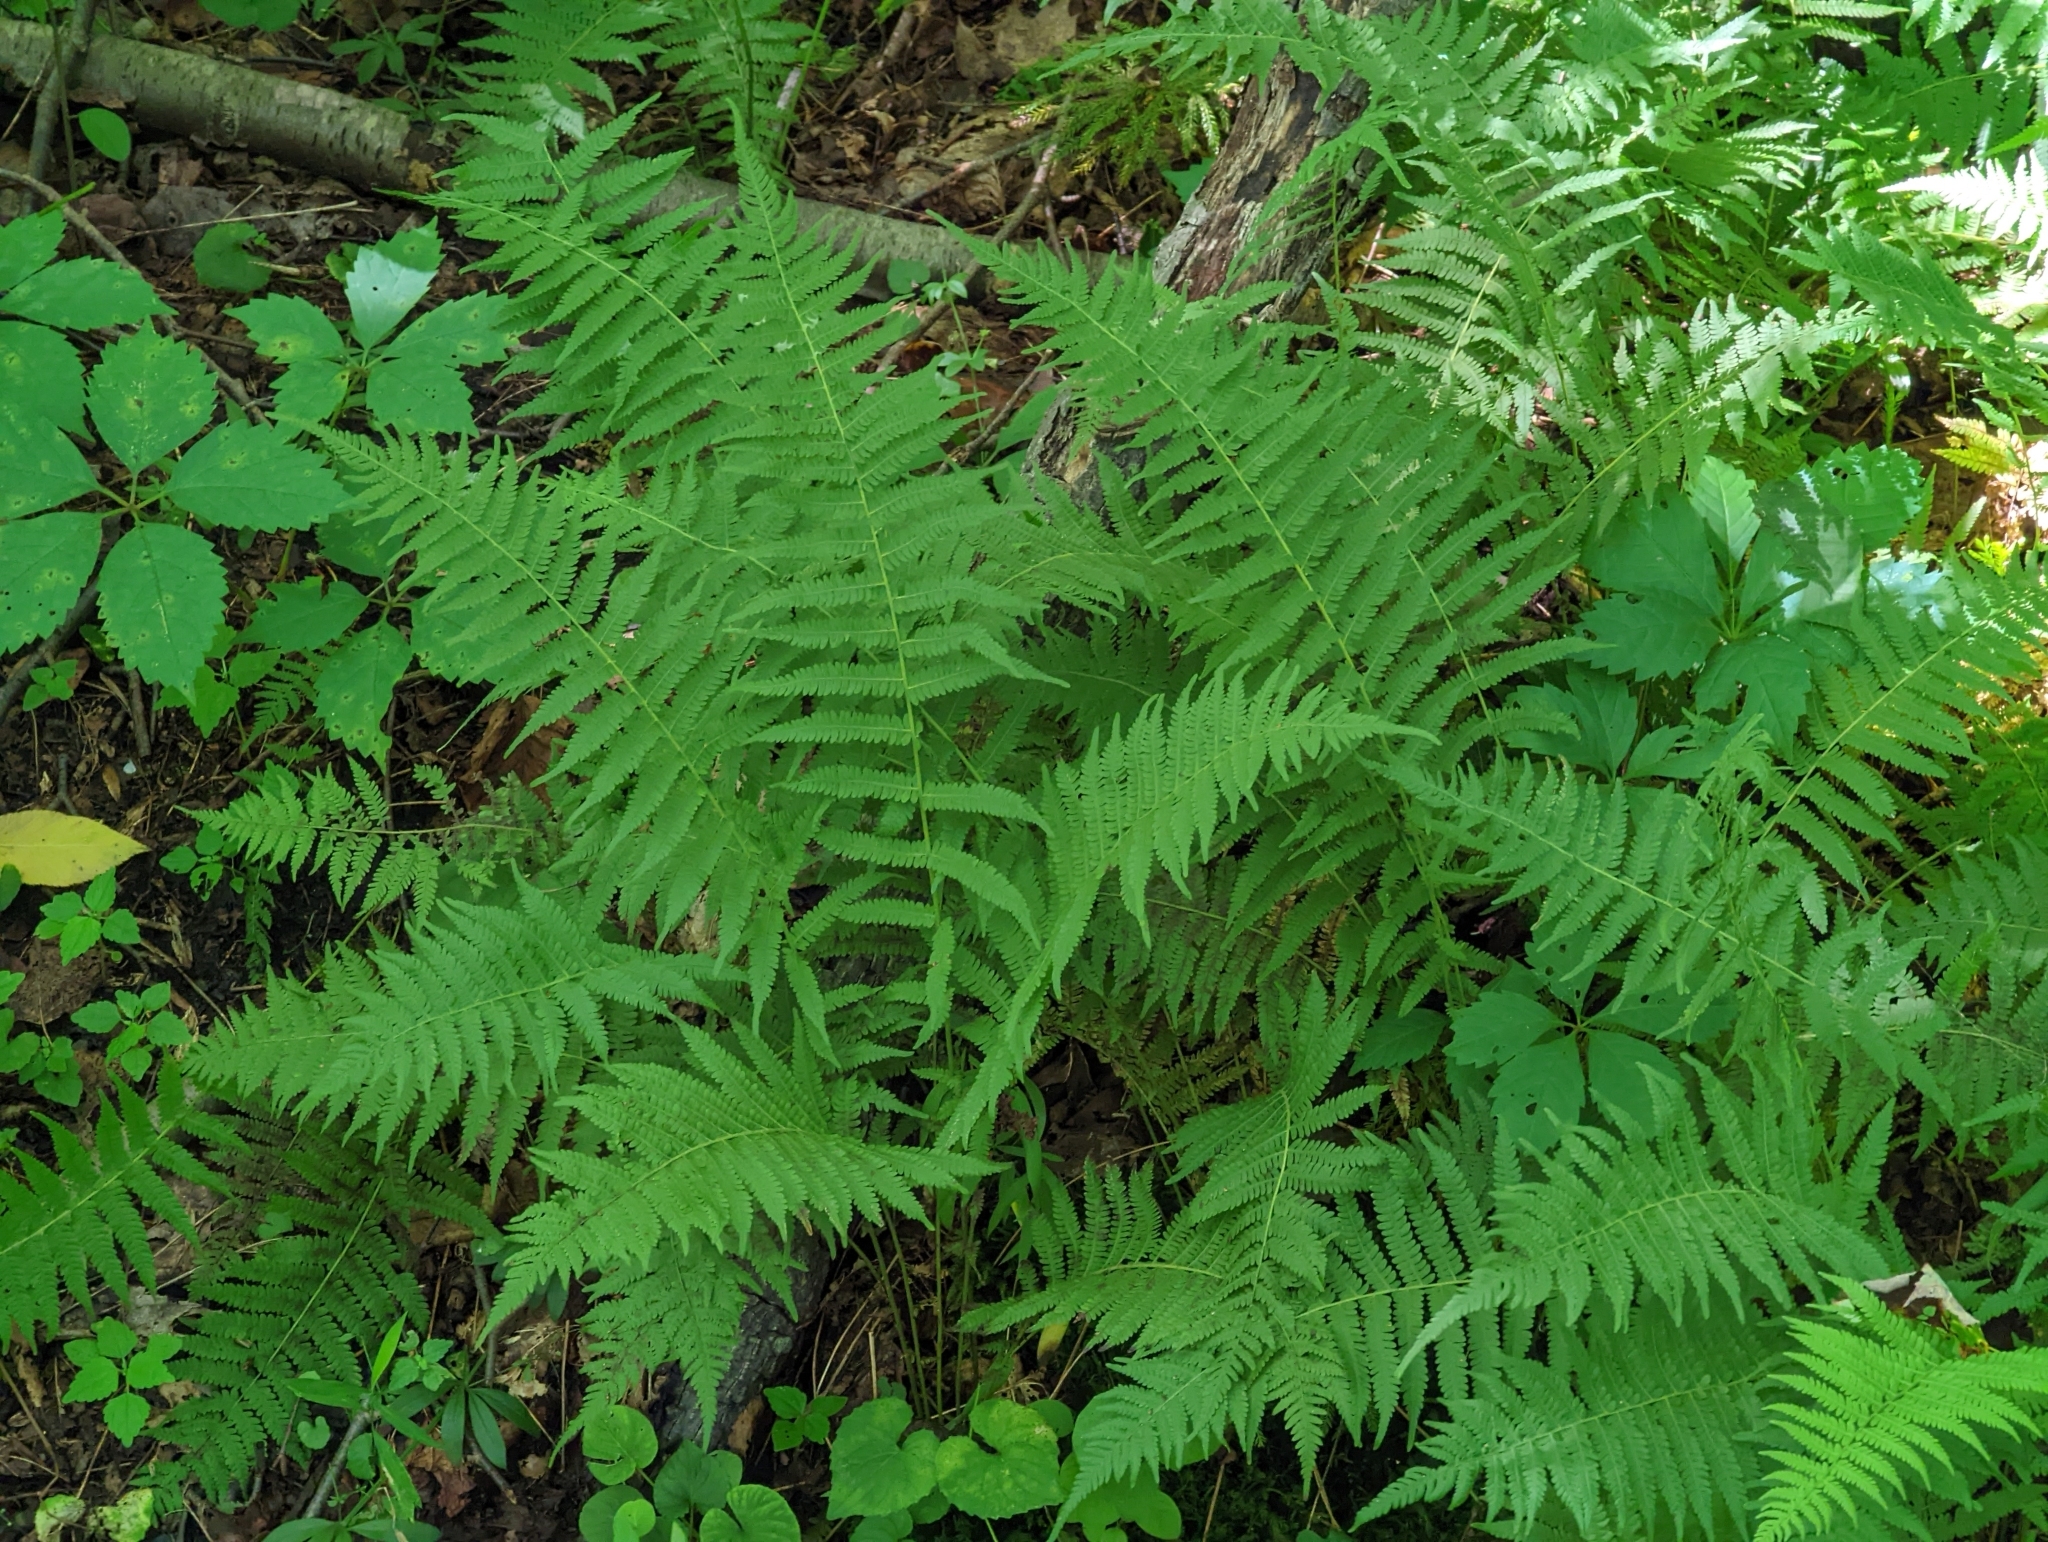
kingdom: Plantae
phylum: Tracheophyta
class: Polypodiopsida
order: Polypodiales
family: Thelypteridaceae
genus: Amauropelta
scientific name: Amauropelta noveboracensis
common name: New york fern
